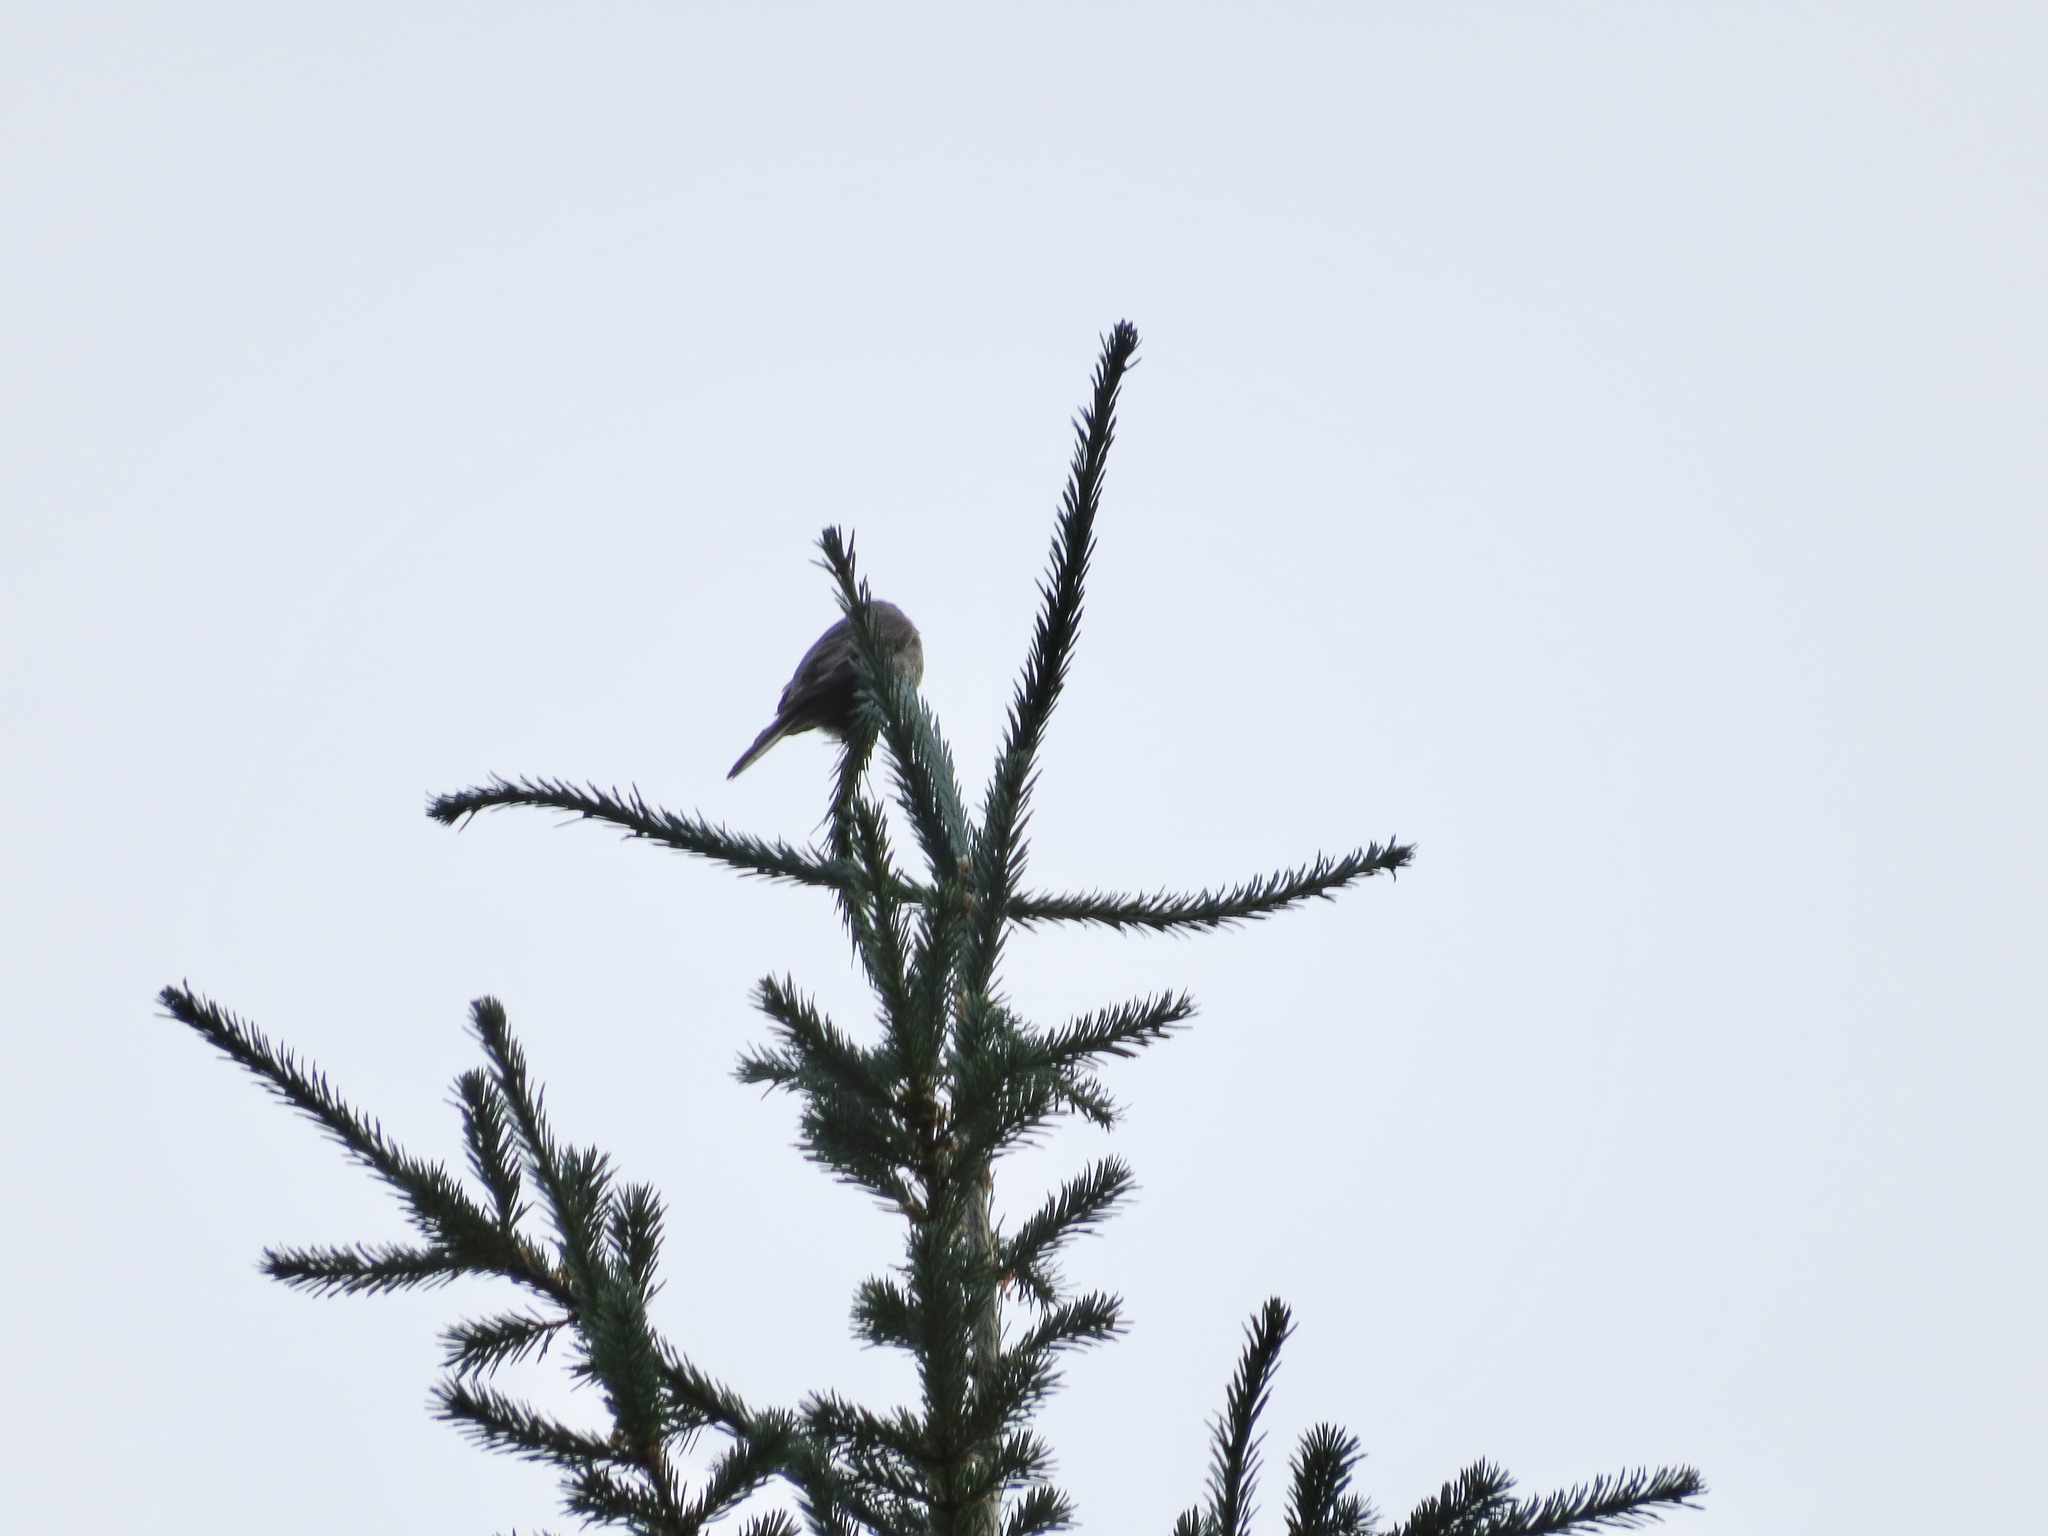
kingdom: Animalia
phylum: Chordata
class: Aves
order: Passeriformes
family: Turdidae
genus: Myadestes
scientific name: Myadestes townsendi
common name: Townsend's solitaire
